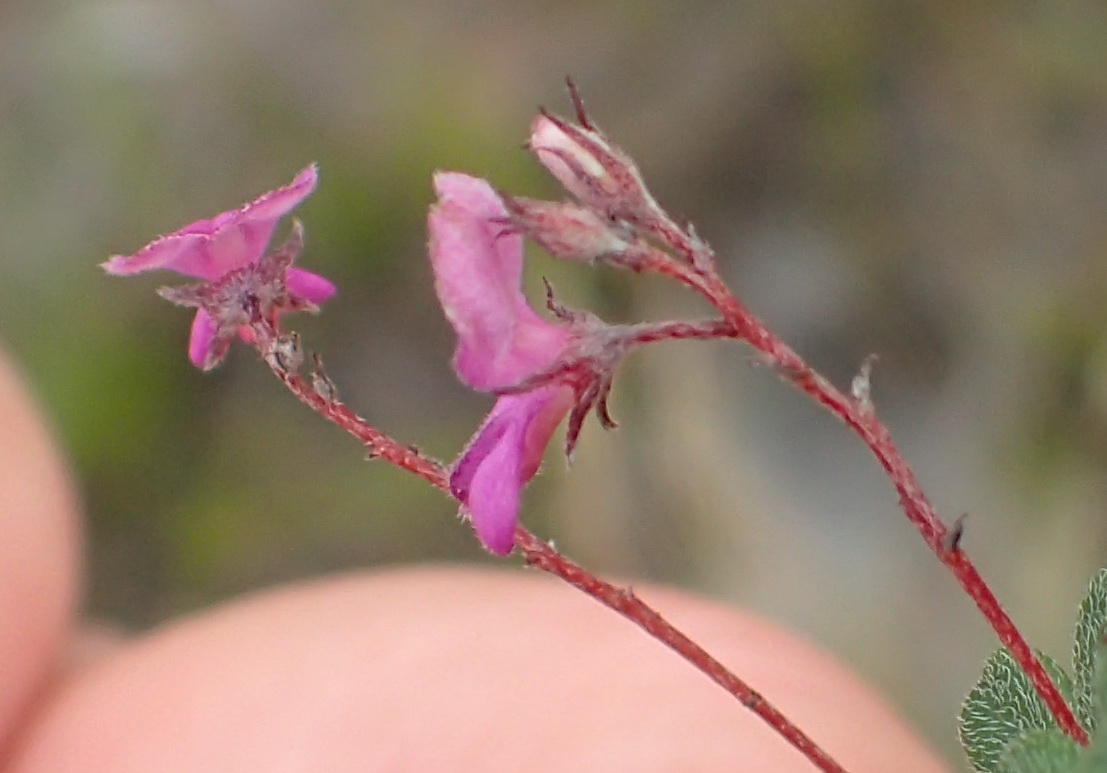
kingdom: Plantae
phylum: Tracheophyta
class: Magnoliopsida
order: Fabales
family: Fabaceae
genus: Indigofera
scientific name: Indigofera
